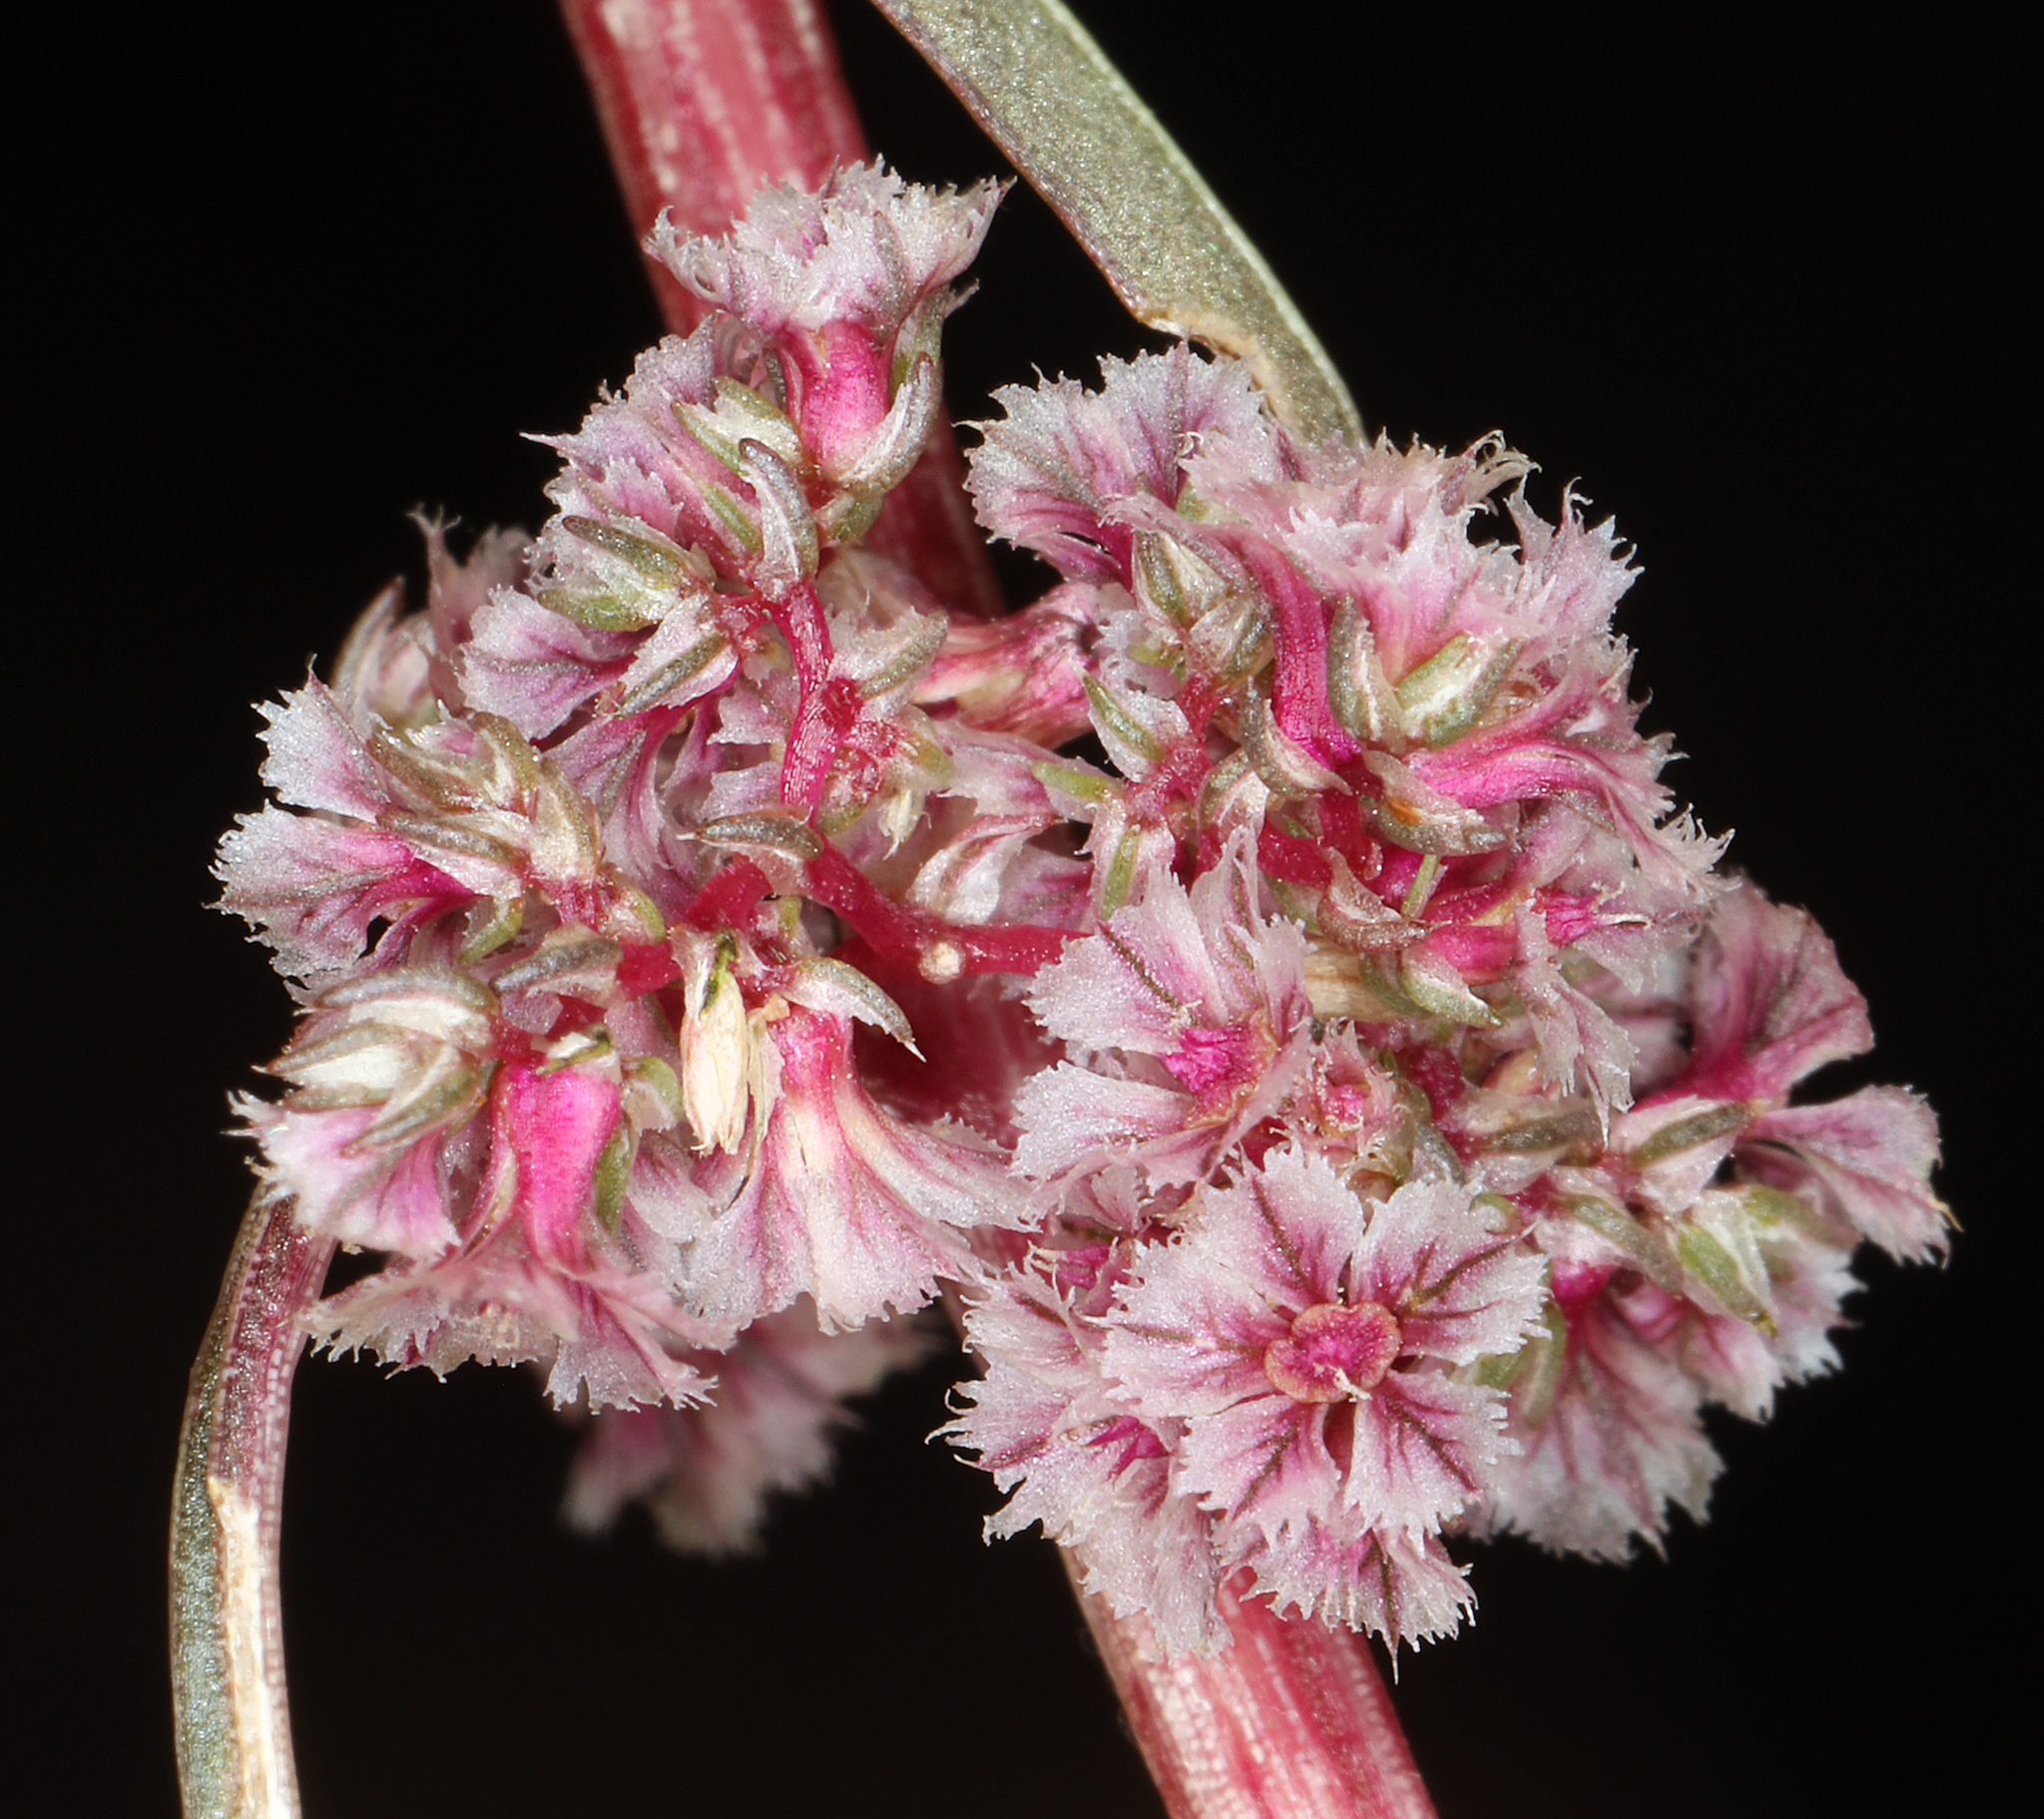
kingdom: Plantae
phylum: Tracheophyta
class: Magnoliopsida
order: Caryophyllales
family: Amaranthaceae
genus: Amaranthus
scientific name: Amaranthus fimbriatus
